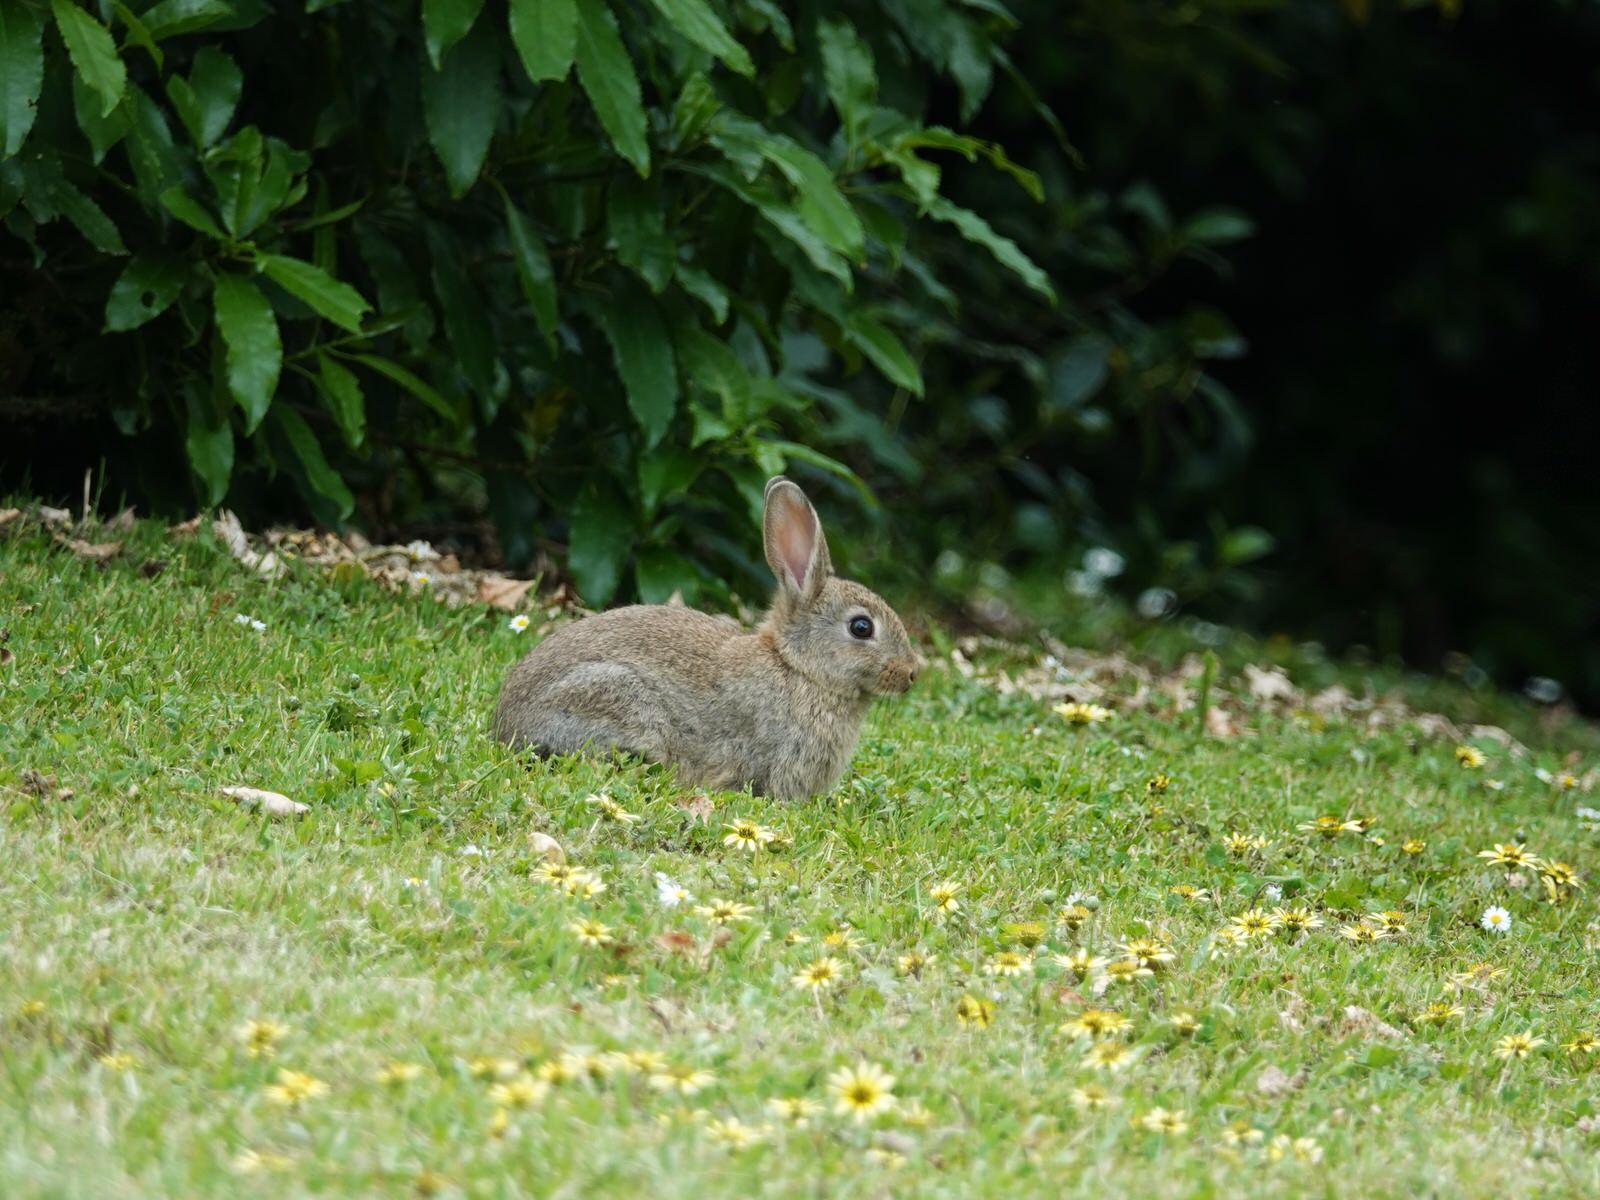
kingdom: Animalia
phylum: Chordata
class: Mammalia
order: Lagomorpha
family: Leporidae
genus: Oryctolagus
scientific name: Oryctolagus cuniculus
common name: European rabbit
